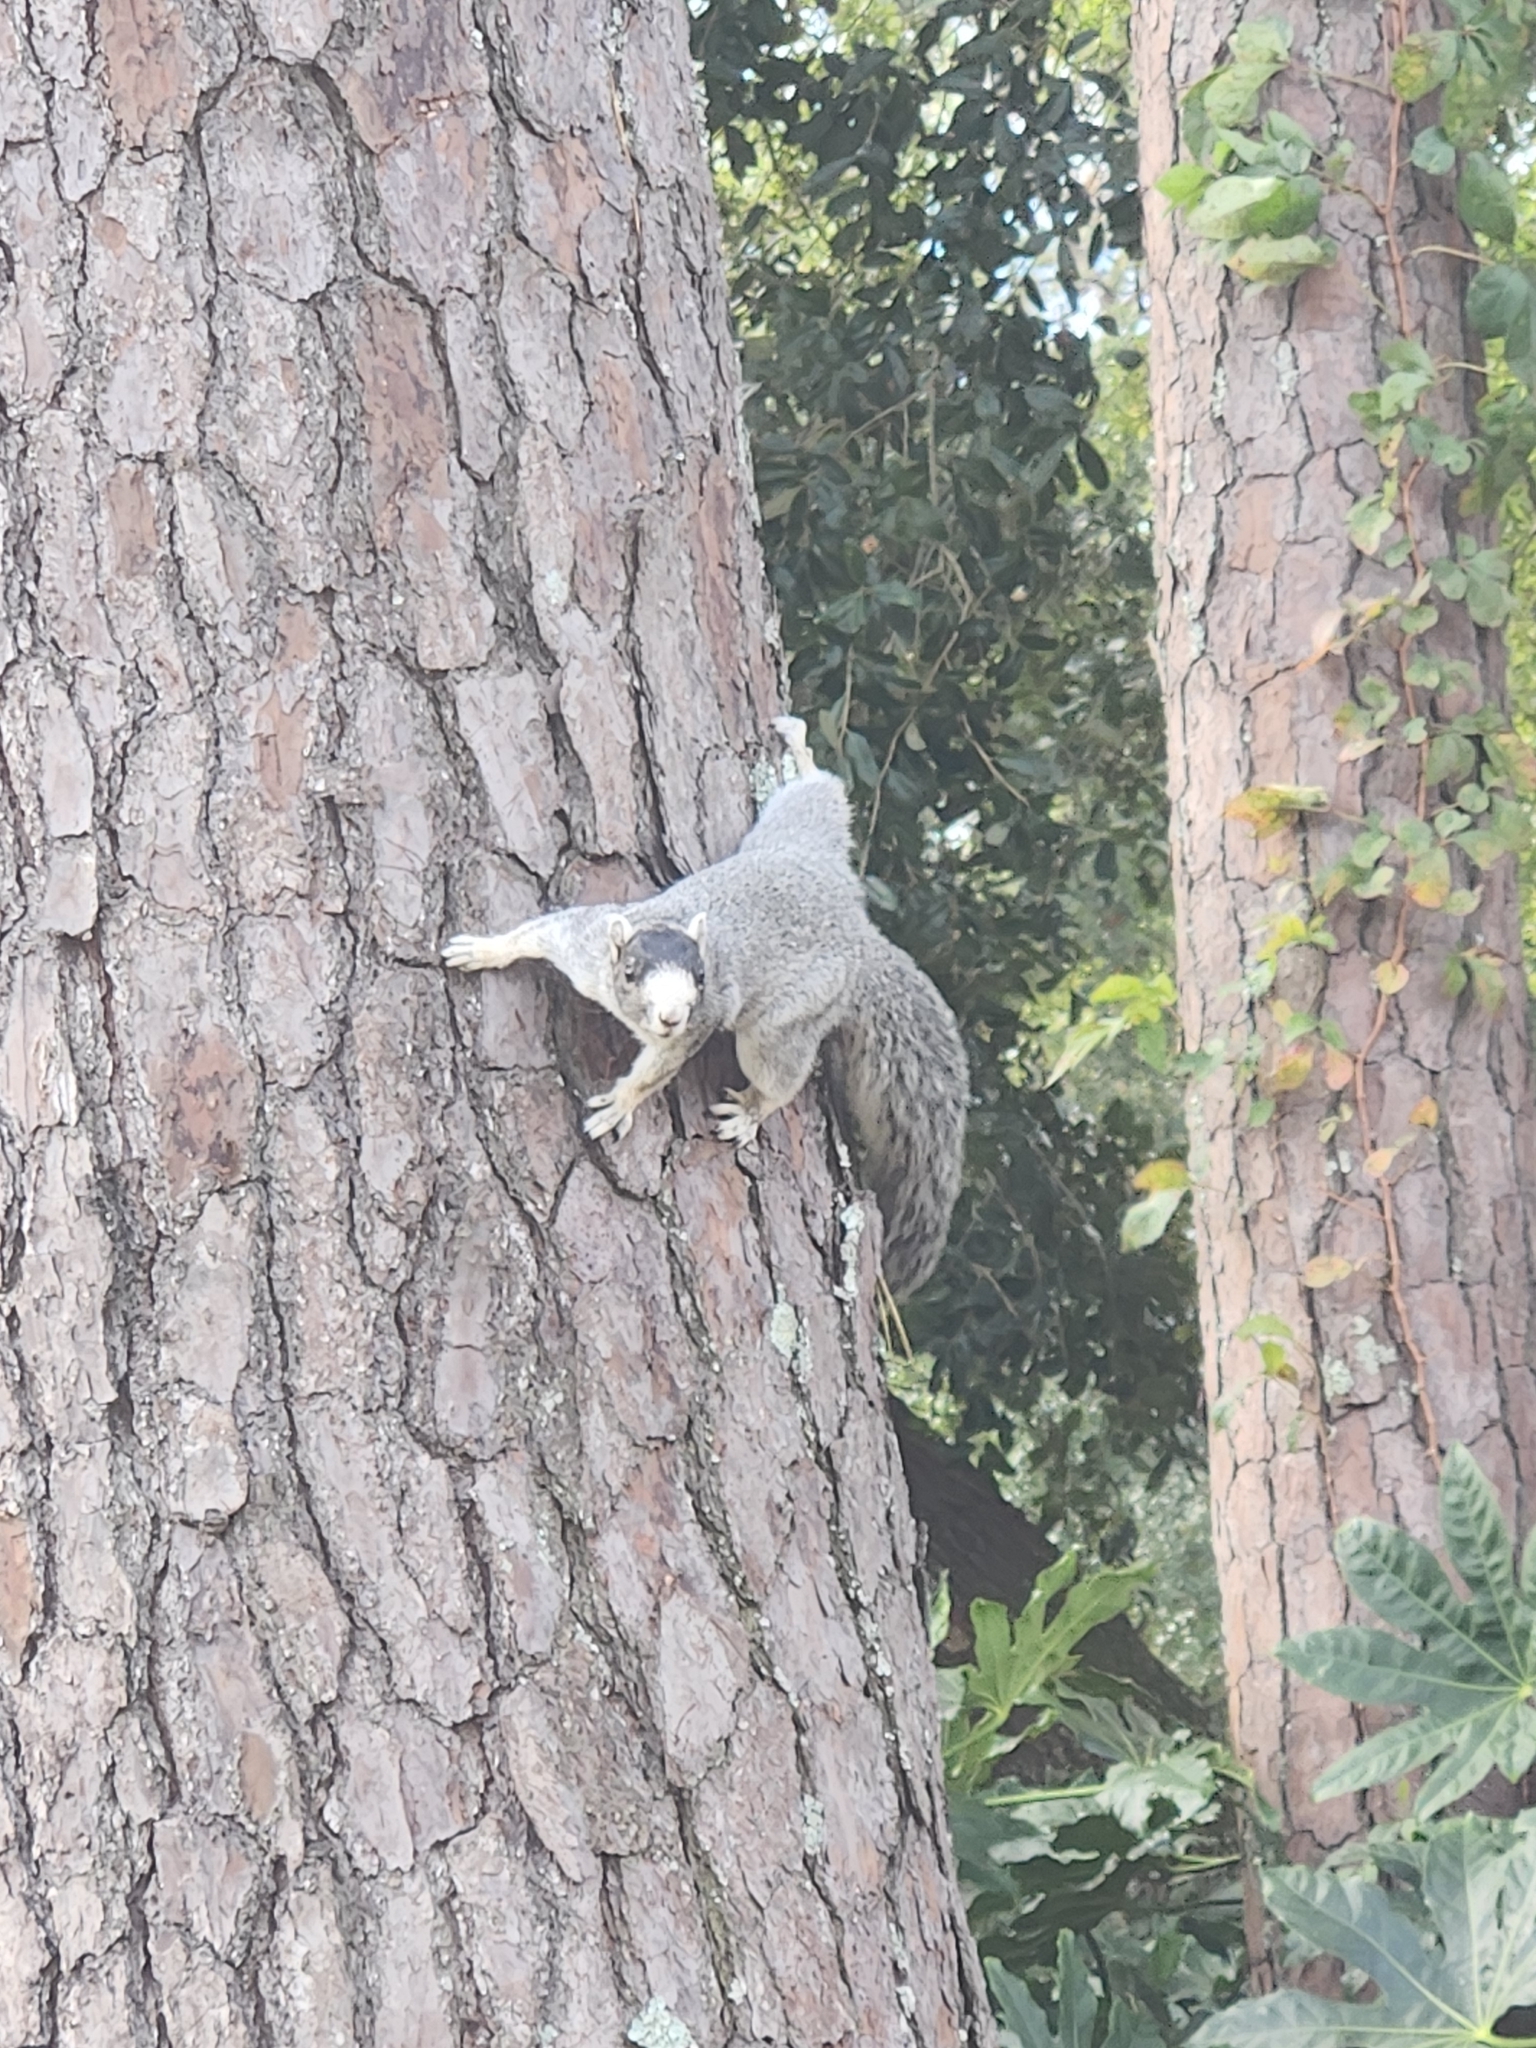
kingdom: Animalia
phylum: Chordata
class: Mammalia
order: Rodentia
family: Sciuridae
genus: Sciurus
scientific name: Sciurus niger
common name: Fox squirrel
